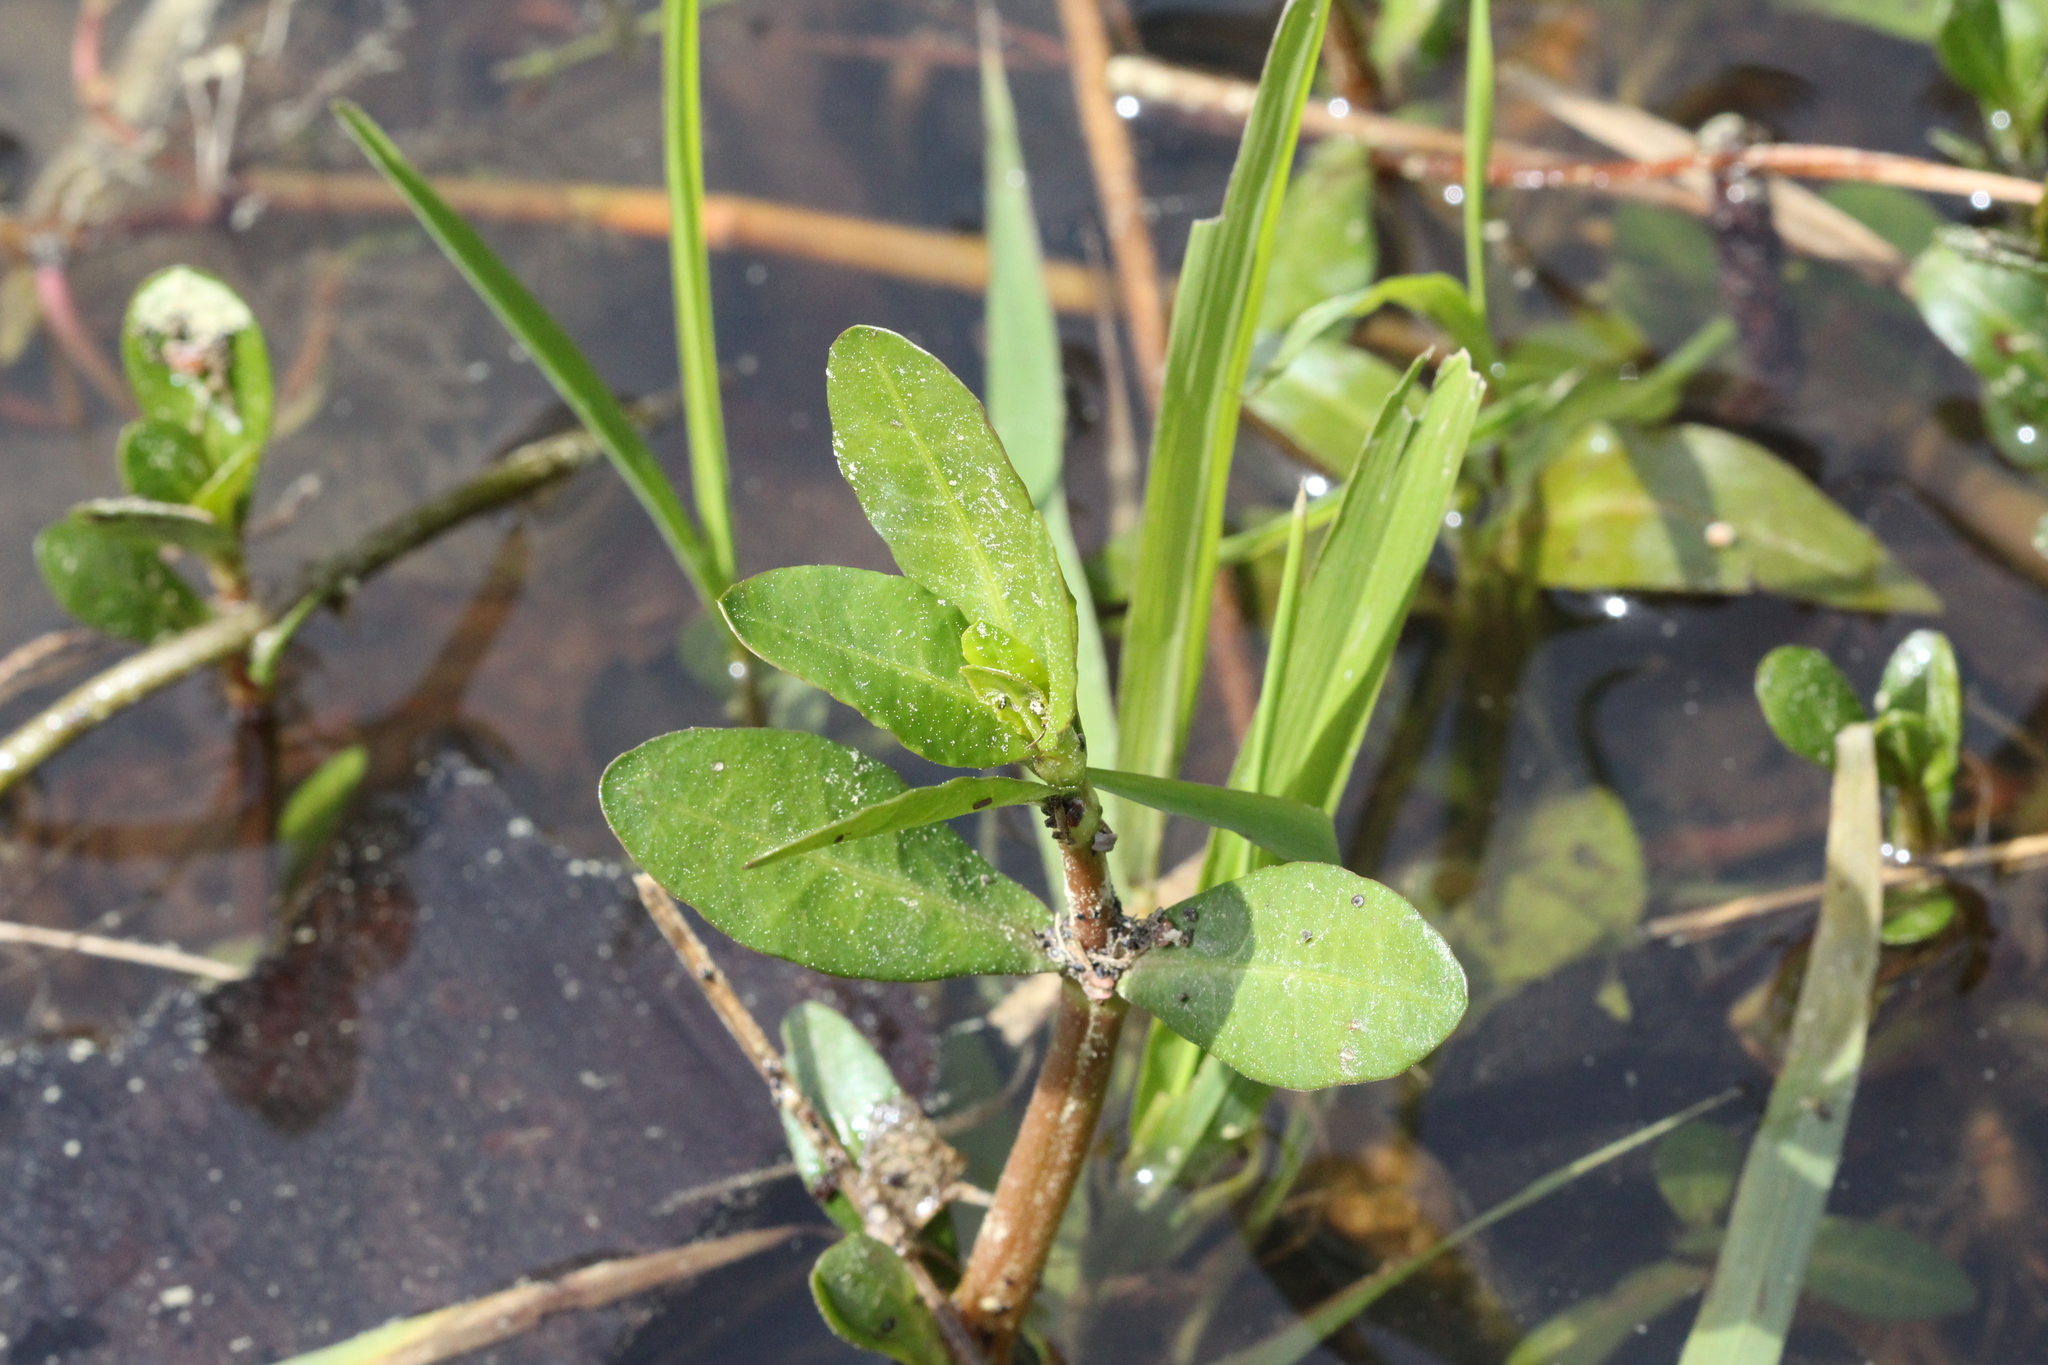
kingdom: Plantae
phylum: Tracheophyta
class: Magnoliopsida
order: Caryophyllales
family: Amaranthaceae
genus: Alternanthera
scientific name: Alternanthera philoxeroides
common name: Alligatorweed
